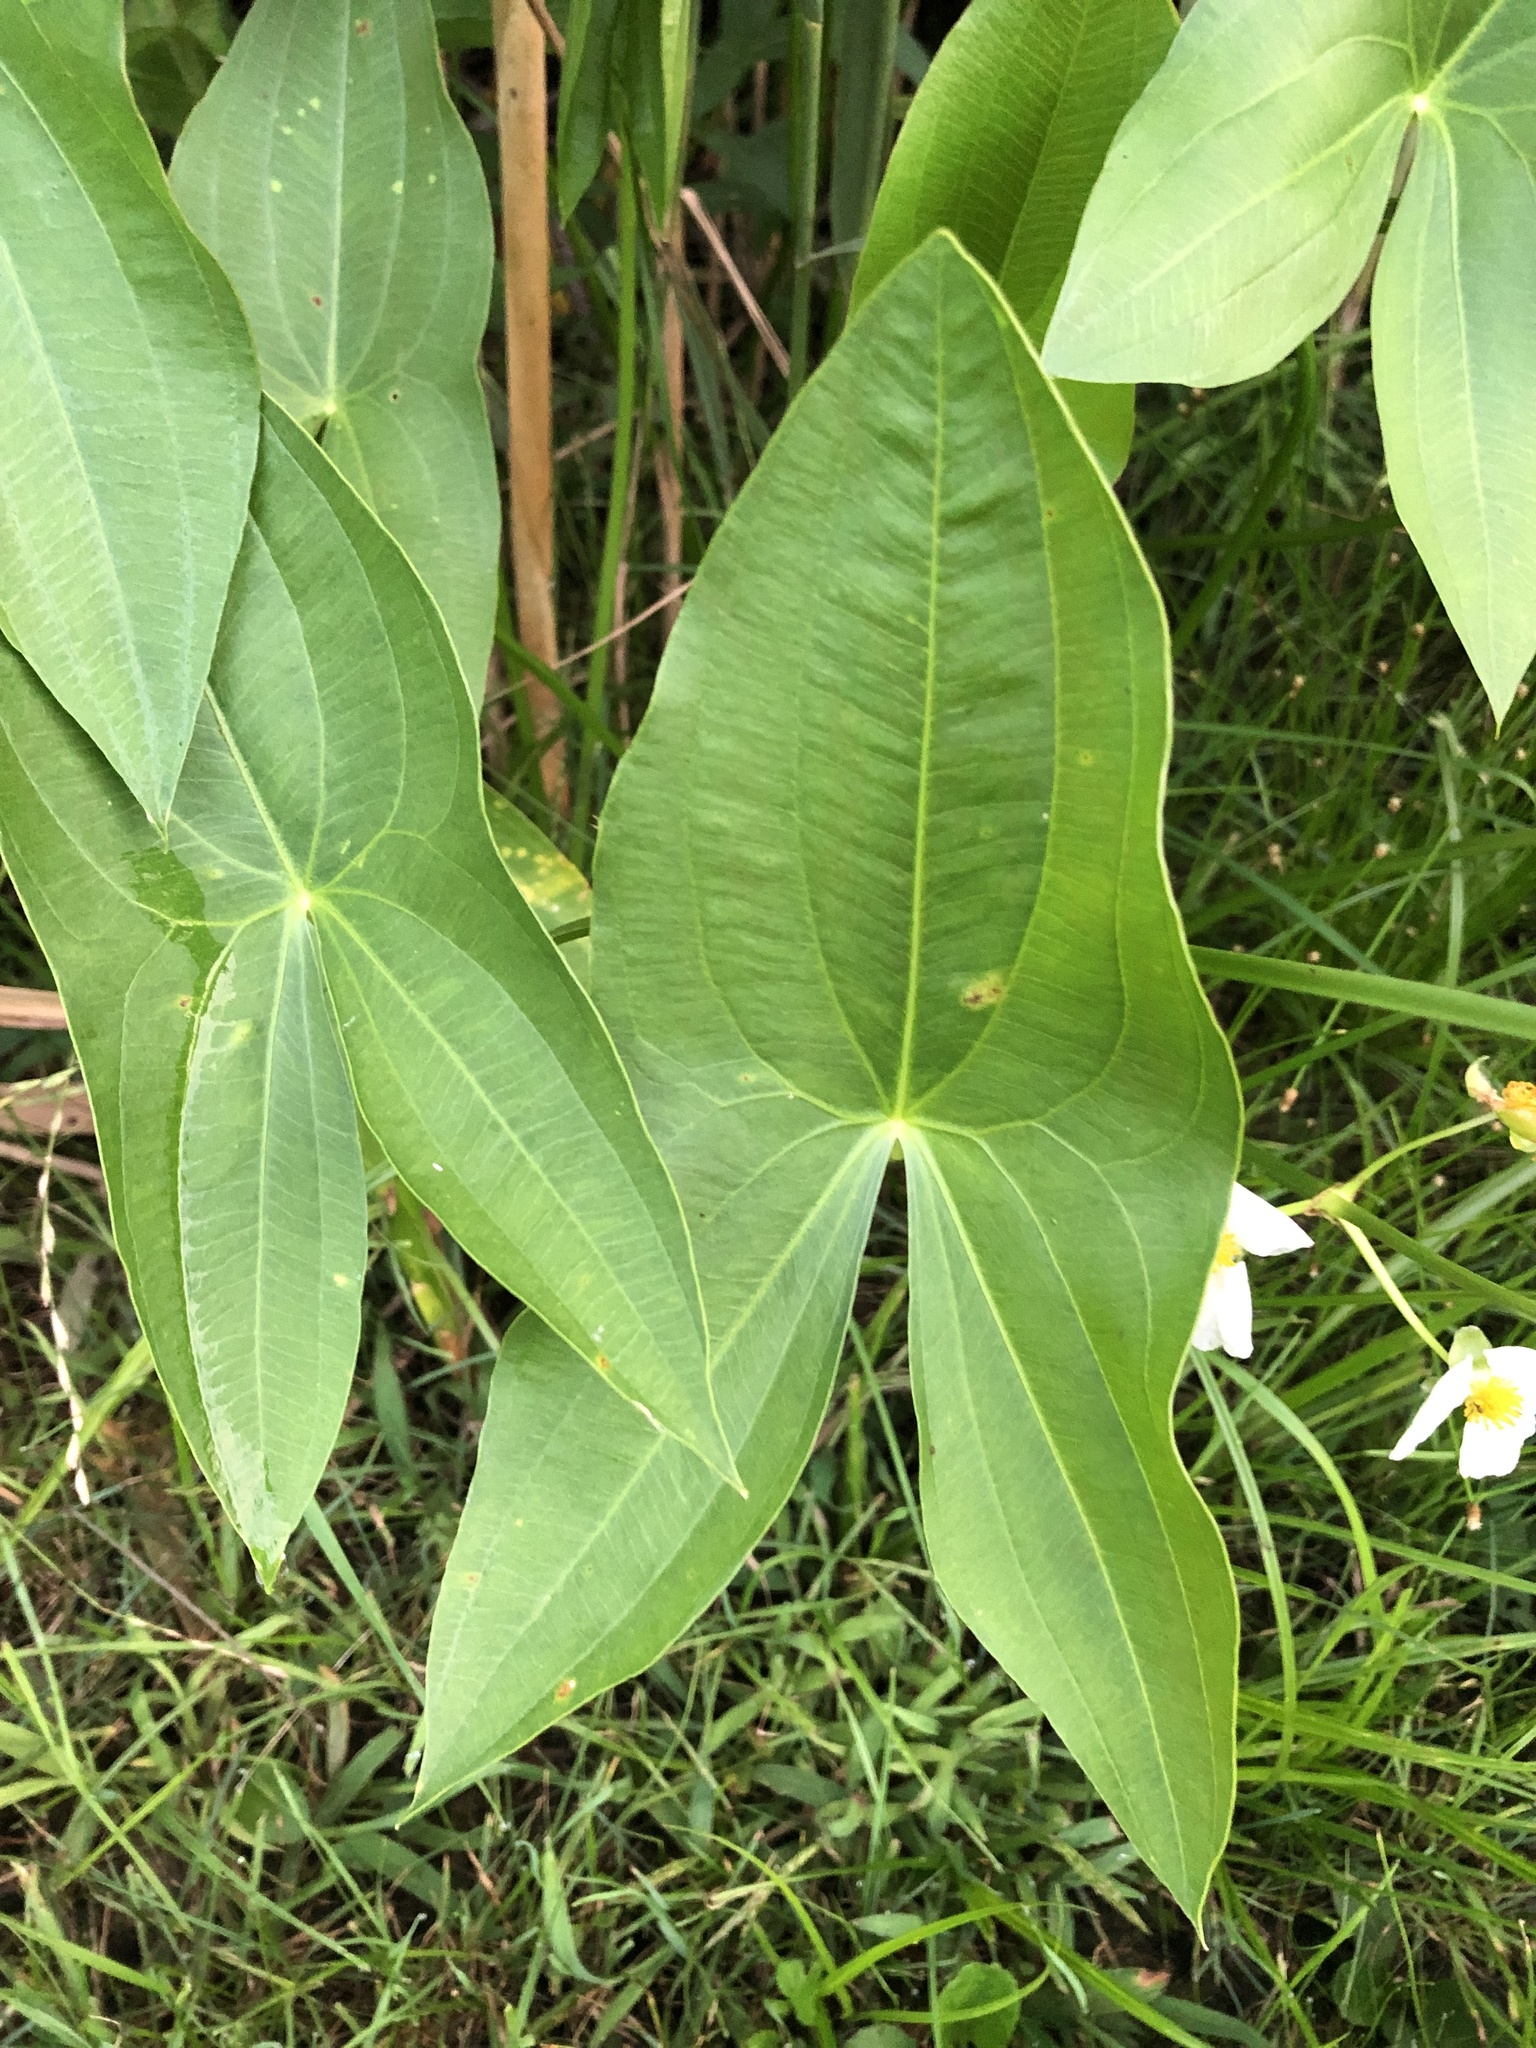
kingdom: Plantae
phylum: Tracheophyta
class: Liliopsida
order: Alismatales
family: Alismataceae
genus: Sagittaria
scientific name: Sagittaria latifolia
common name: Duck-potato
